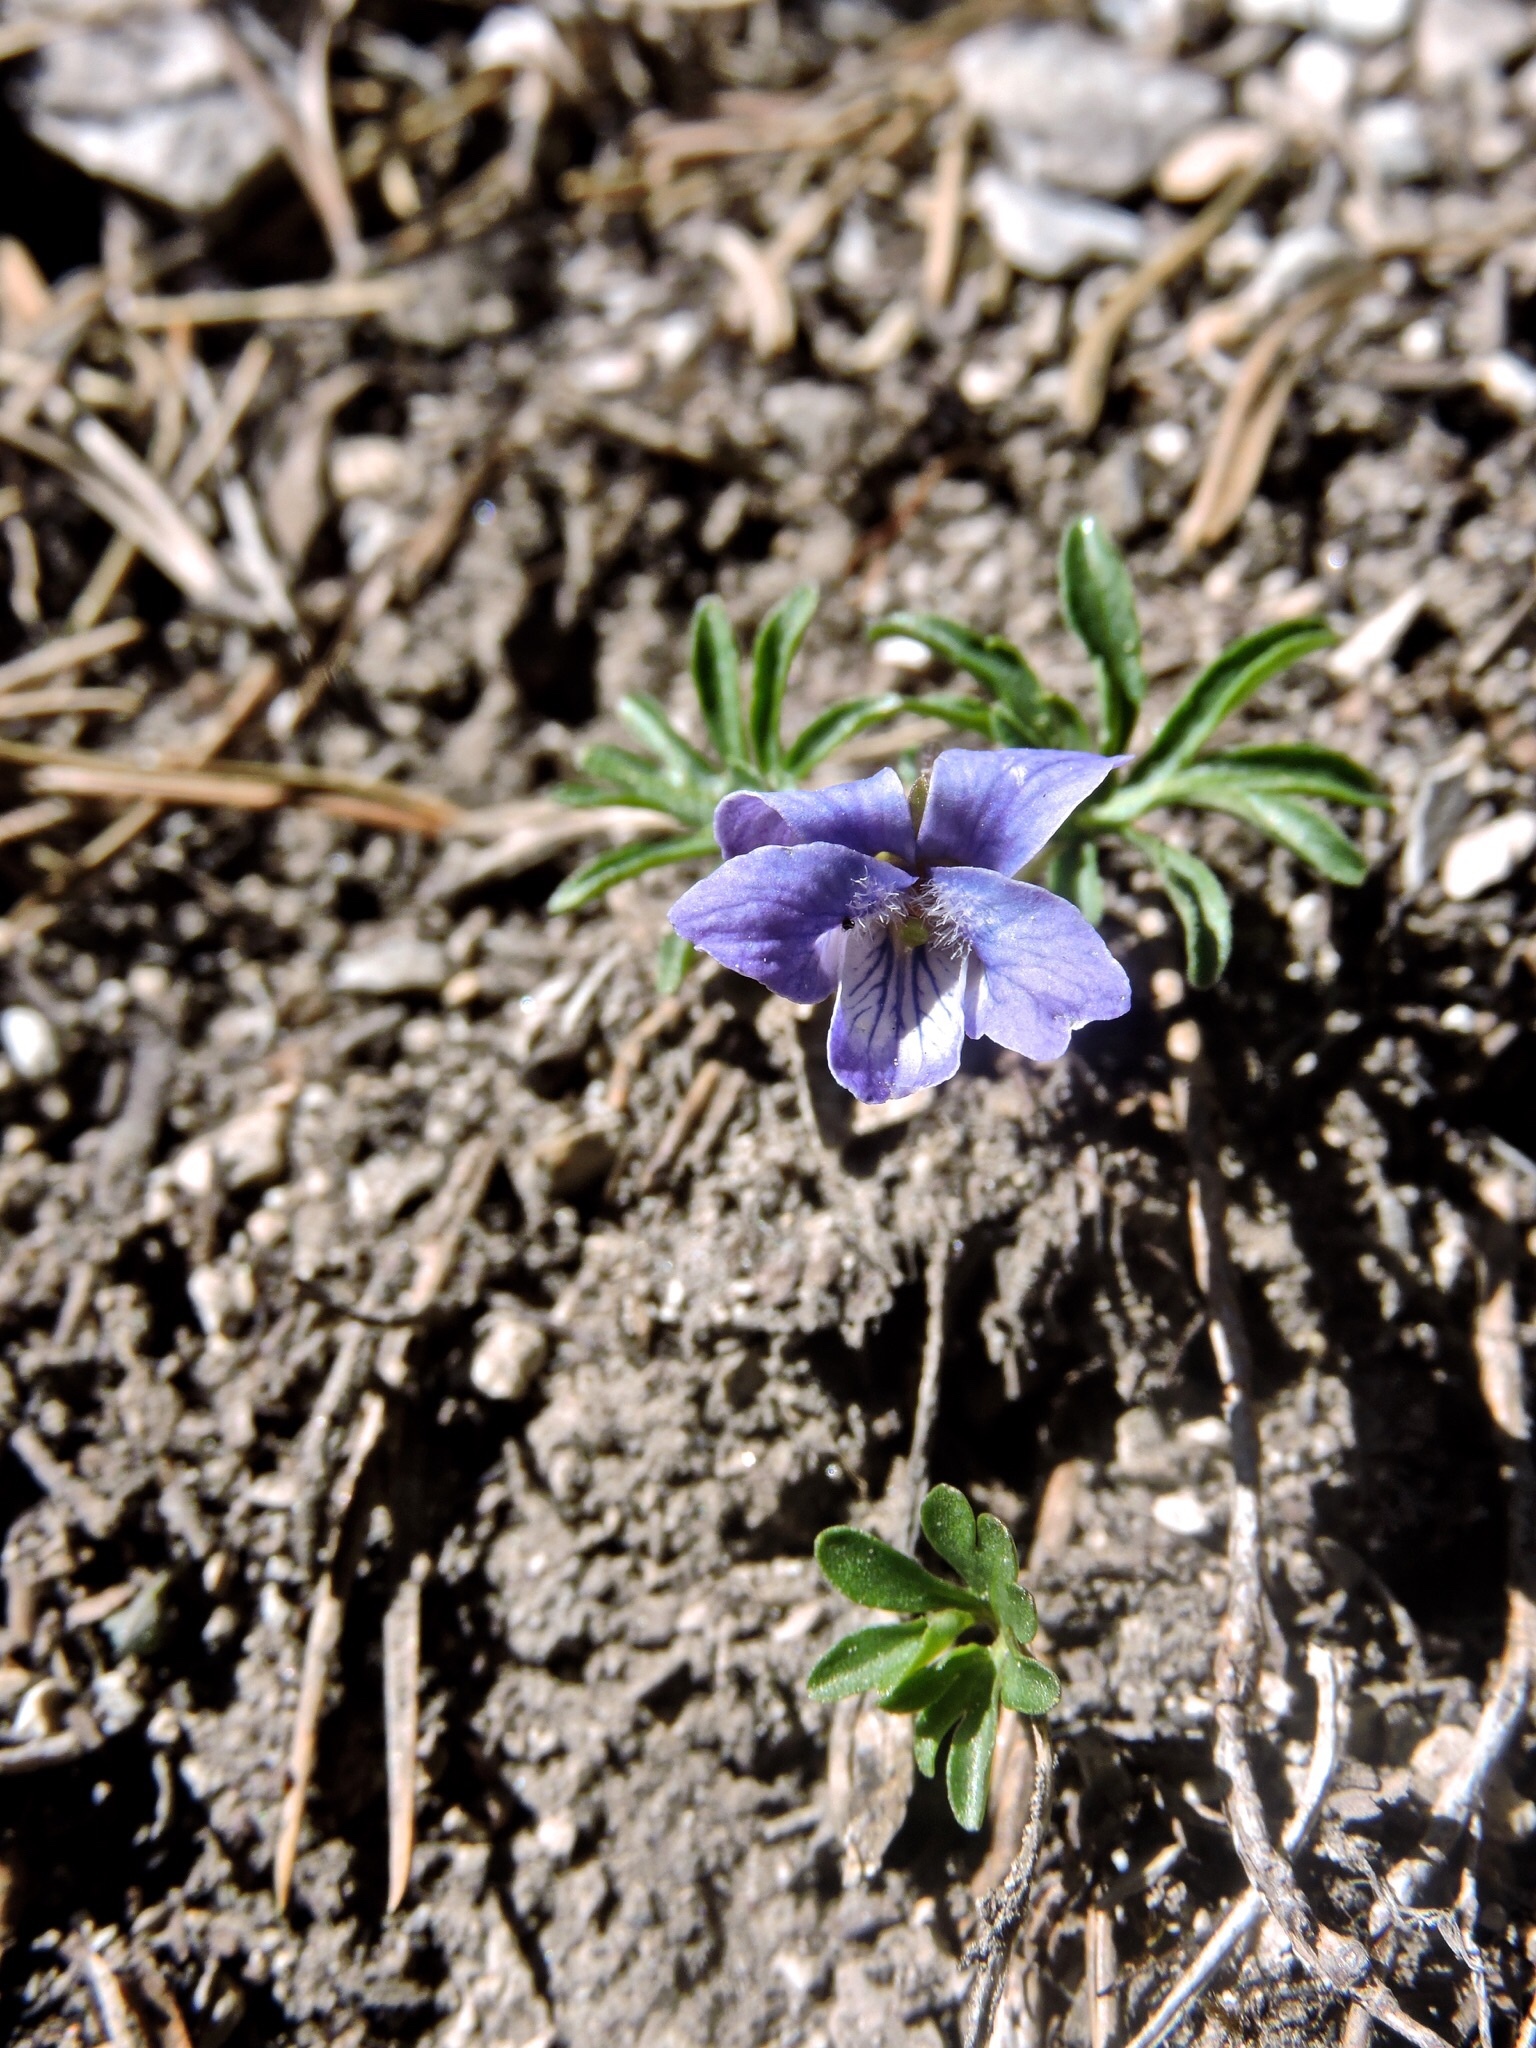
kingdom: Plantae
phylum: Tracheophyta
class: Magnoliopsida
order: Malpighiales
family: Violaceae
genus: Viola
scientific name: Viola pinnata
